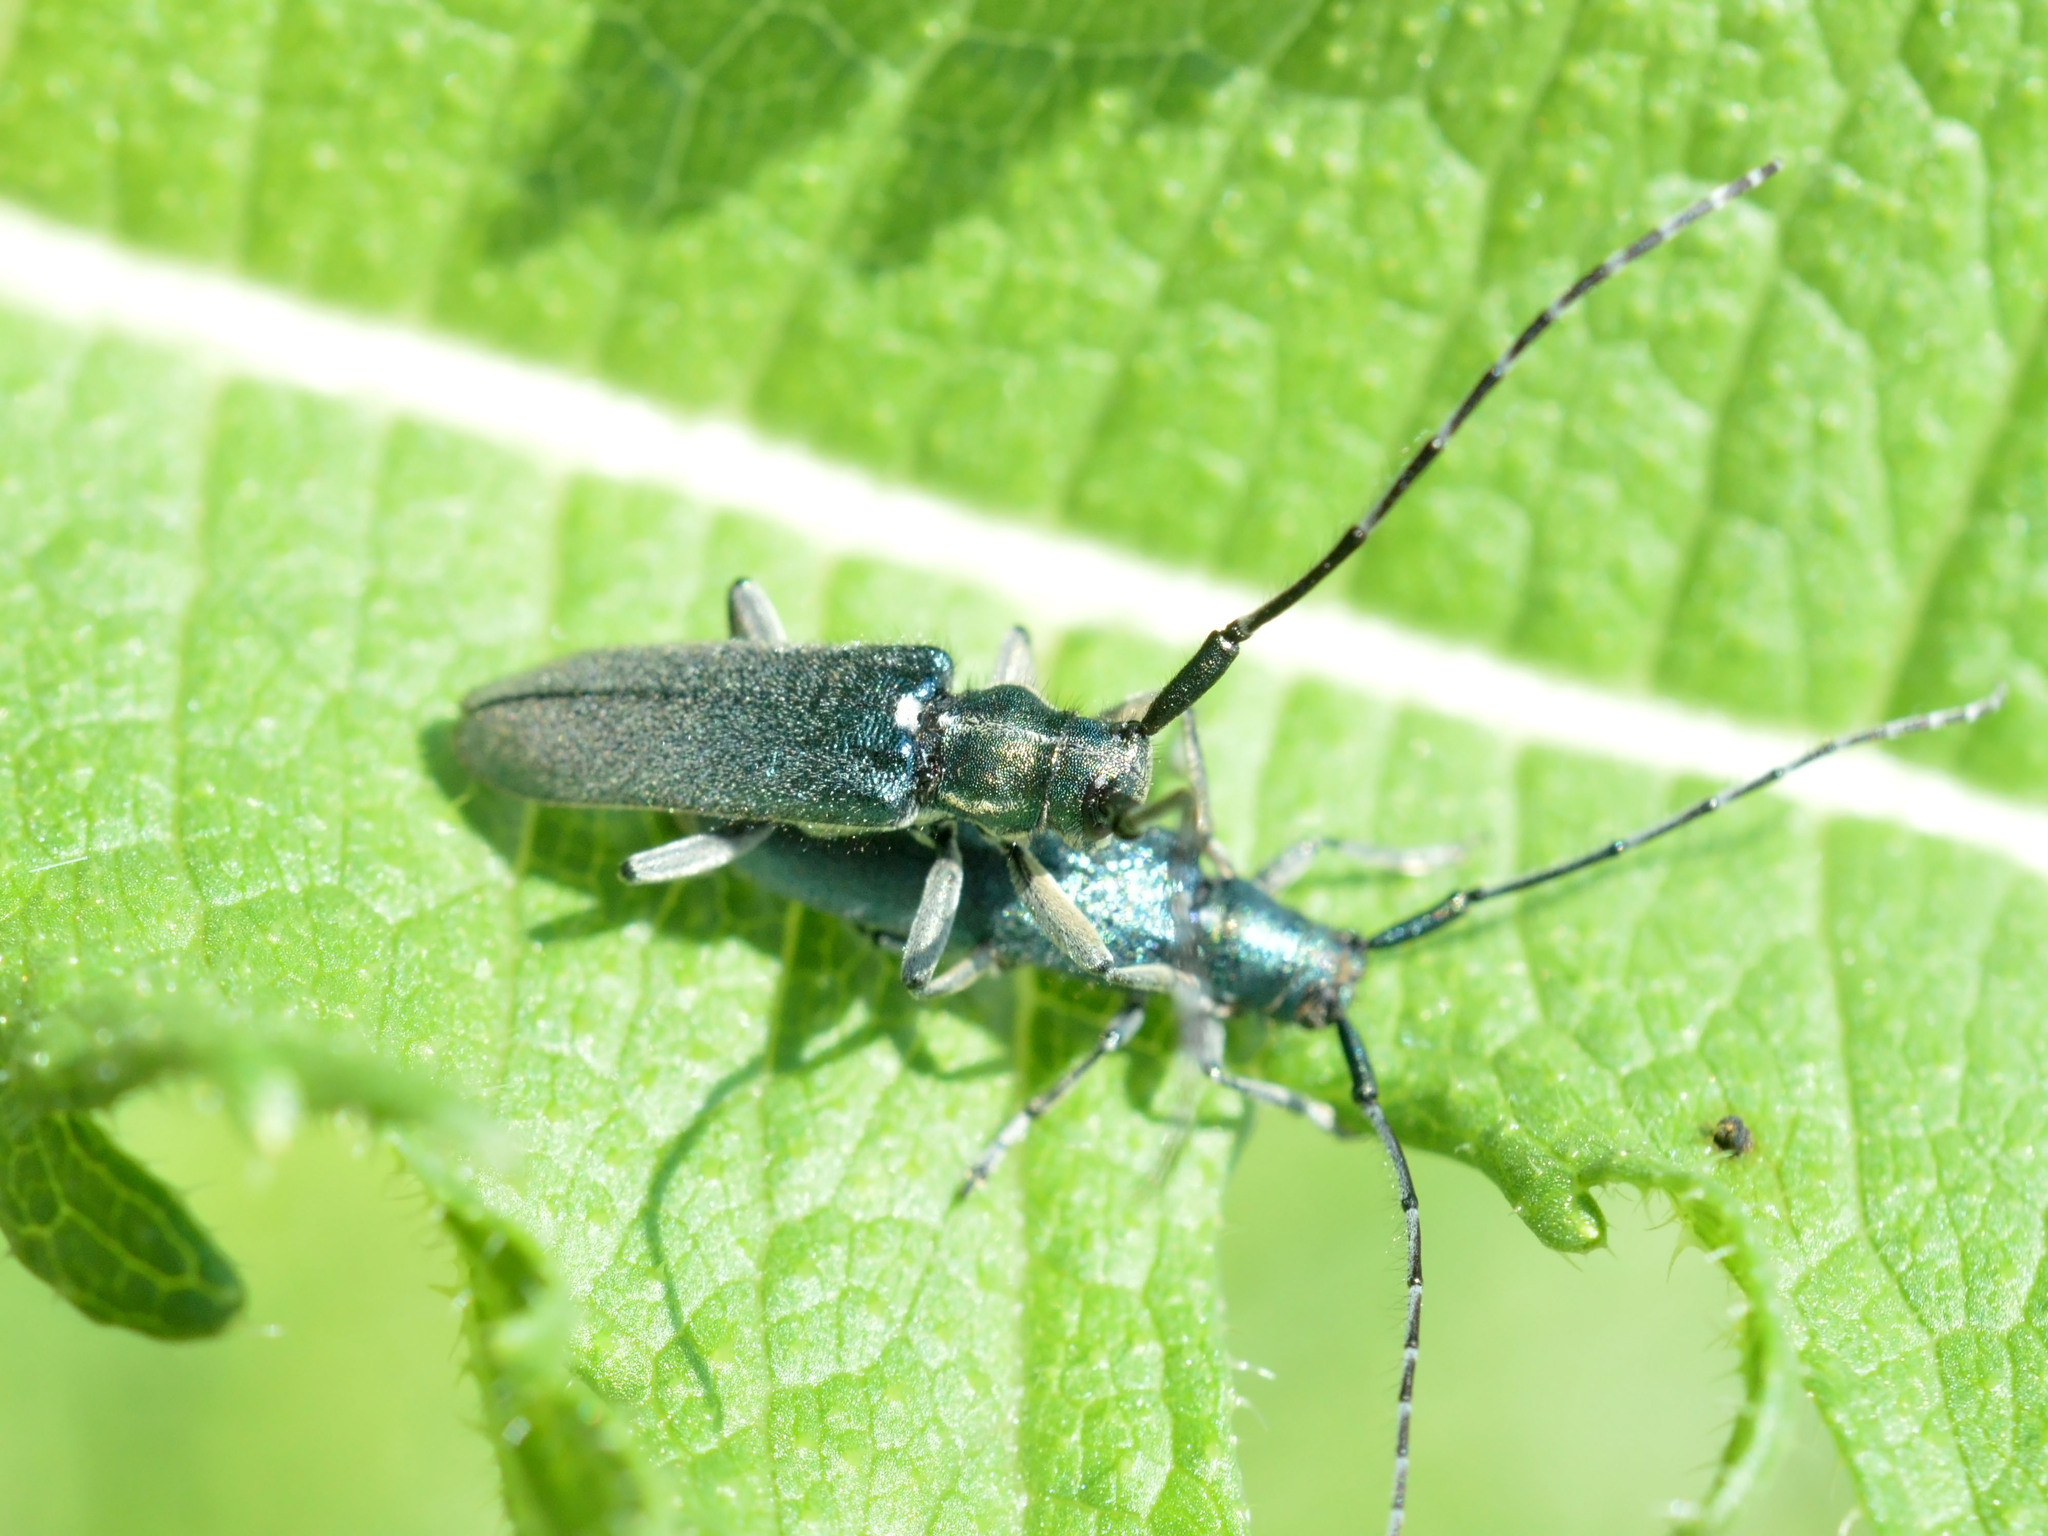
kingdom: Animalia
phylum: Arthropoda
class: Insecta
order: Coleoptera
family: Cerambycidae
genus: Agapanthia
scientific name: Agapanthia osmanlis
